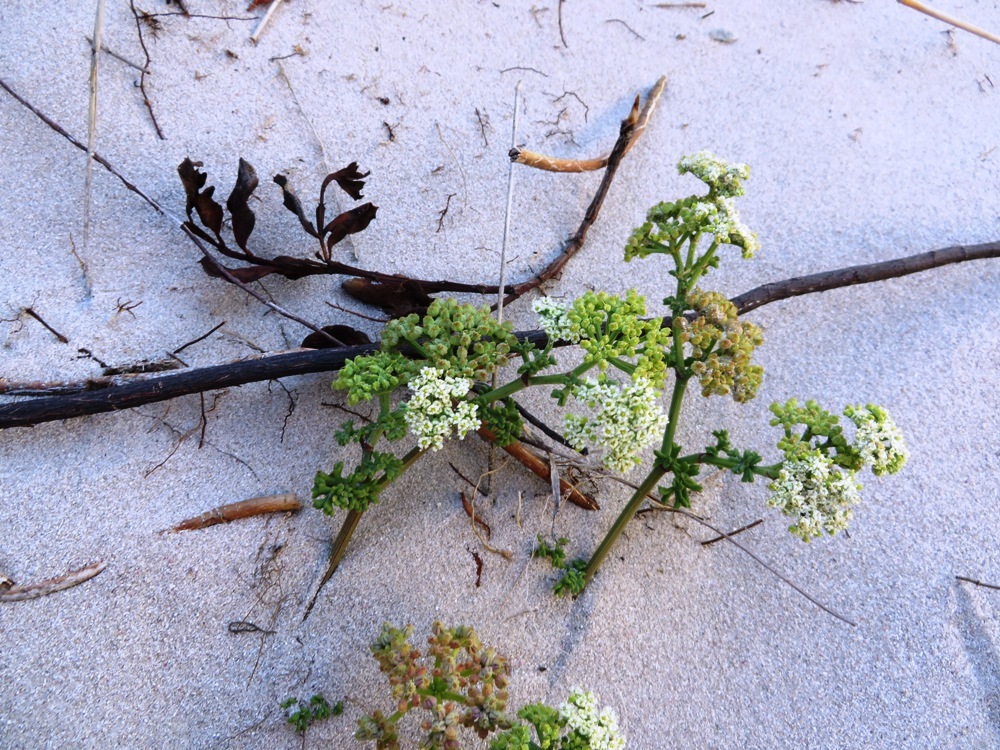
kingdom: Plantae
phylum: Tracheophyta
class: Magnoliopsida
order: Apiales
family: Apiaceae
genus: Dasispermum
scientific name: Dasispermum suffruticosum
